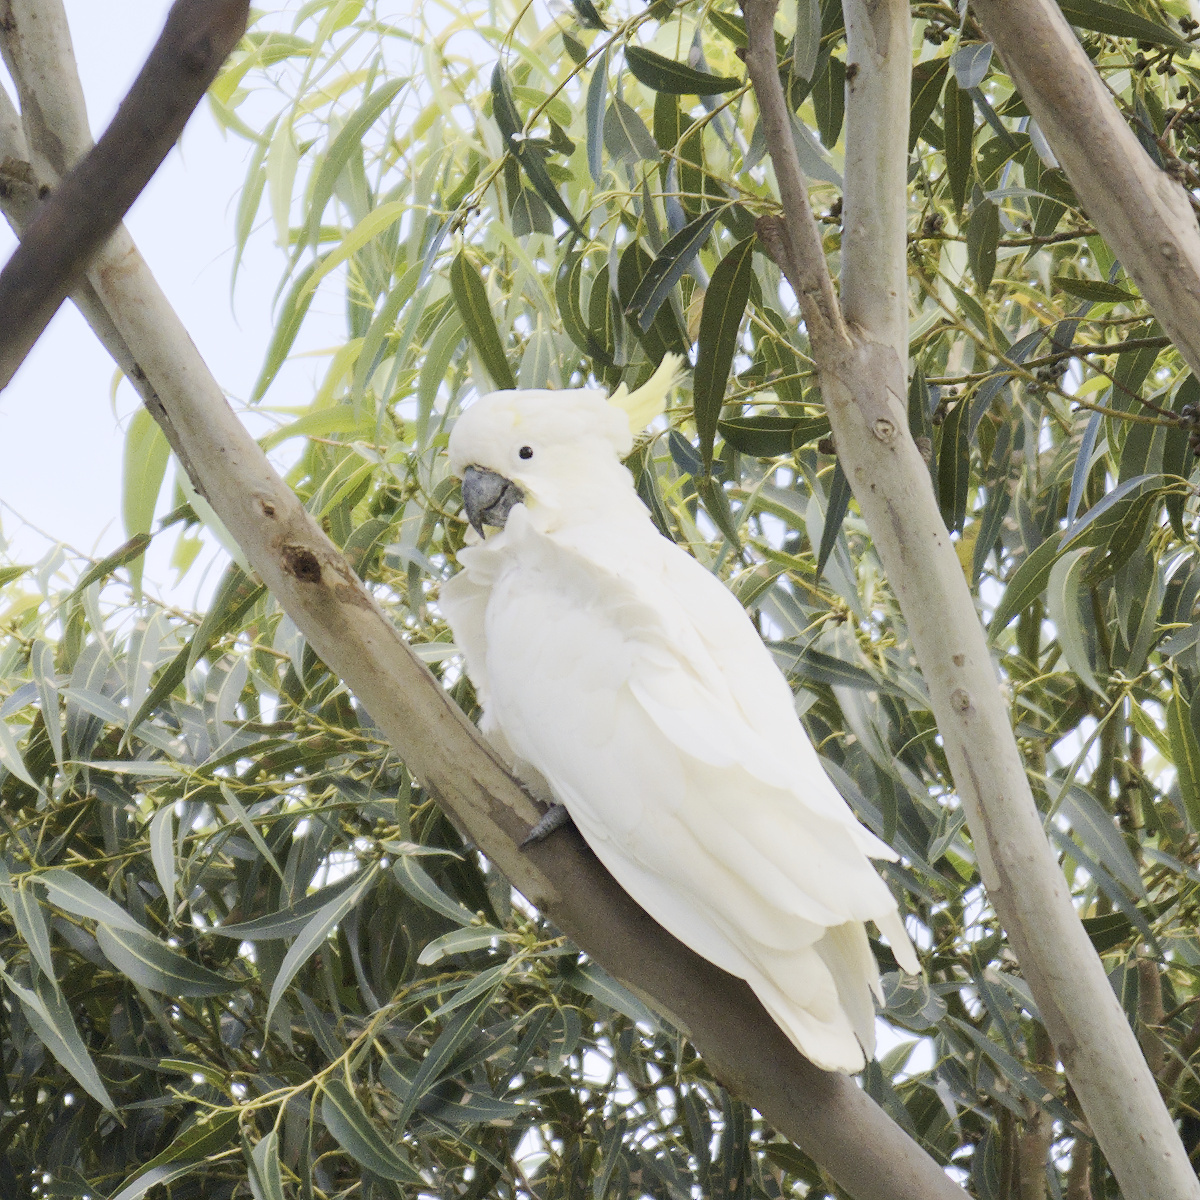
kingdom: Animalia
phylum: Chordata
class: Aves
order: Psittaciformes
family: Psittacidae
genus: Cacatua
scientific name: Cacatua galerita
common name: Sulphur-crested cockatoo
